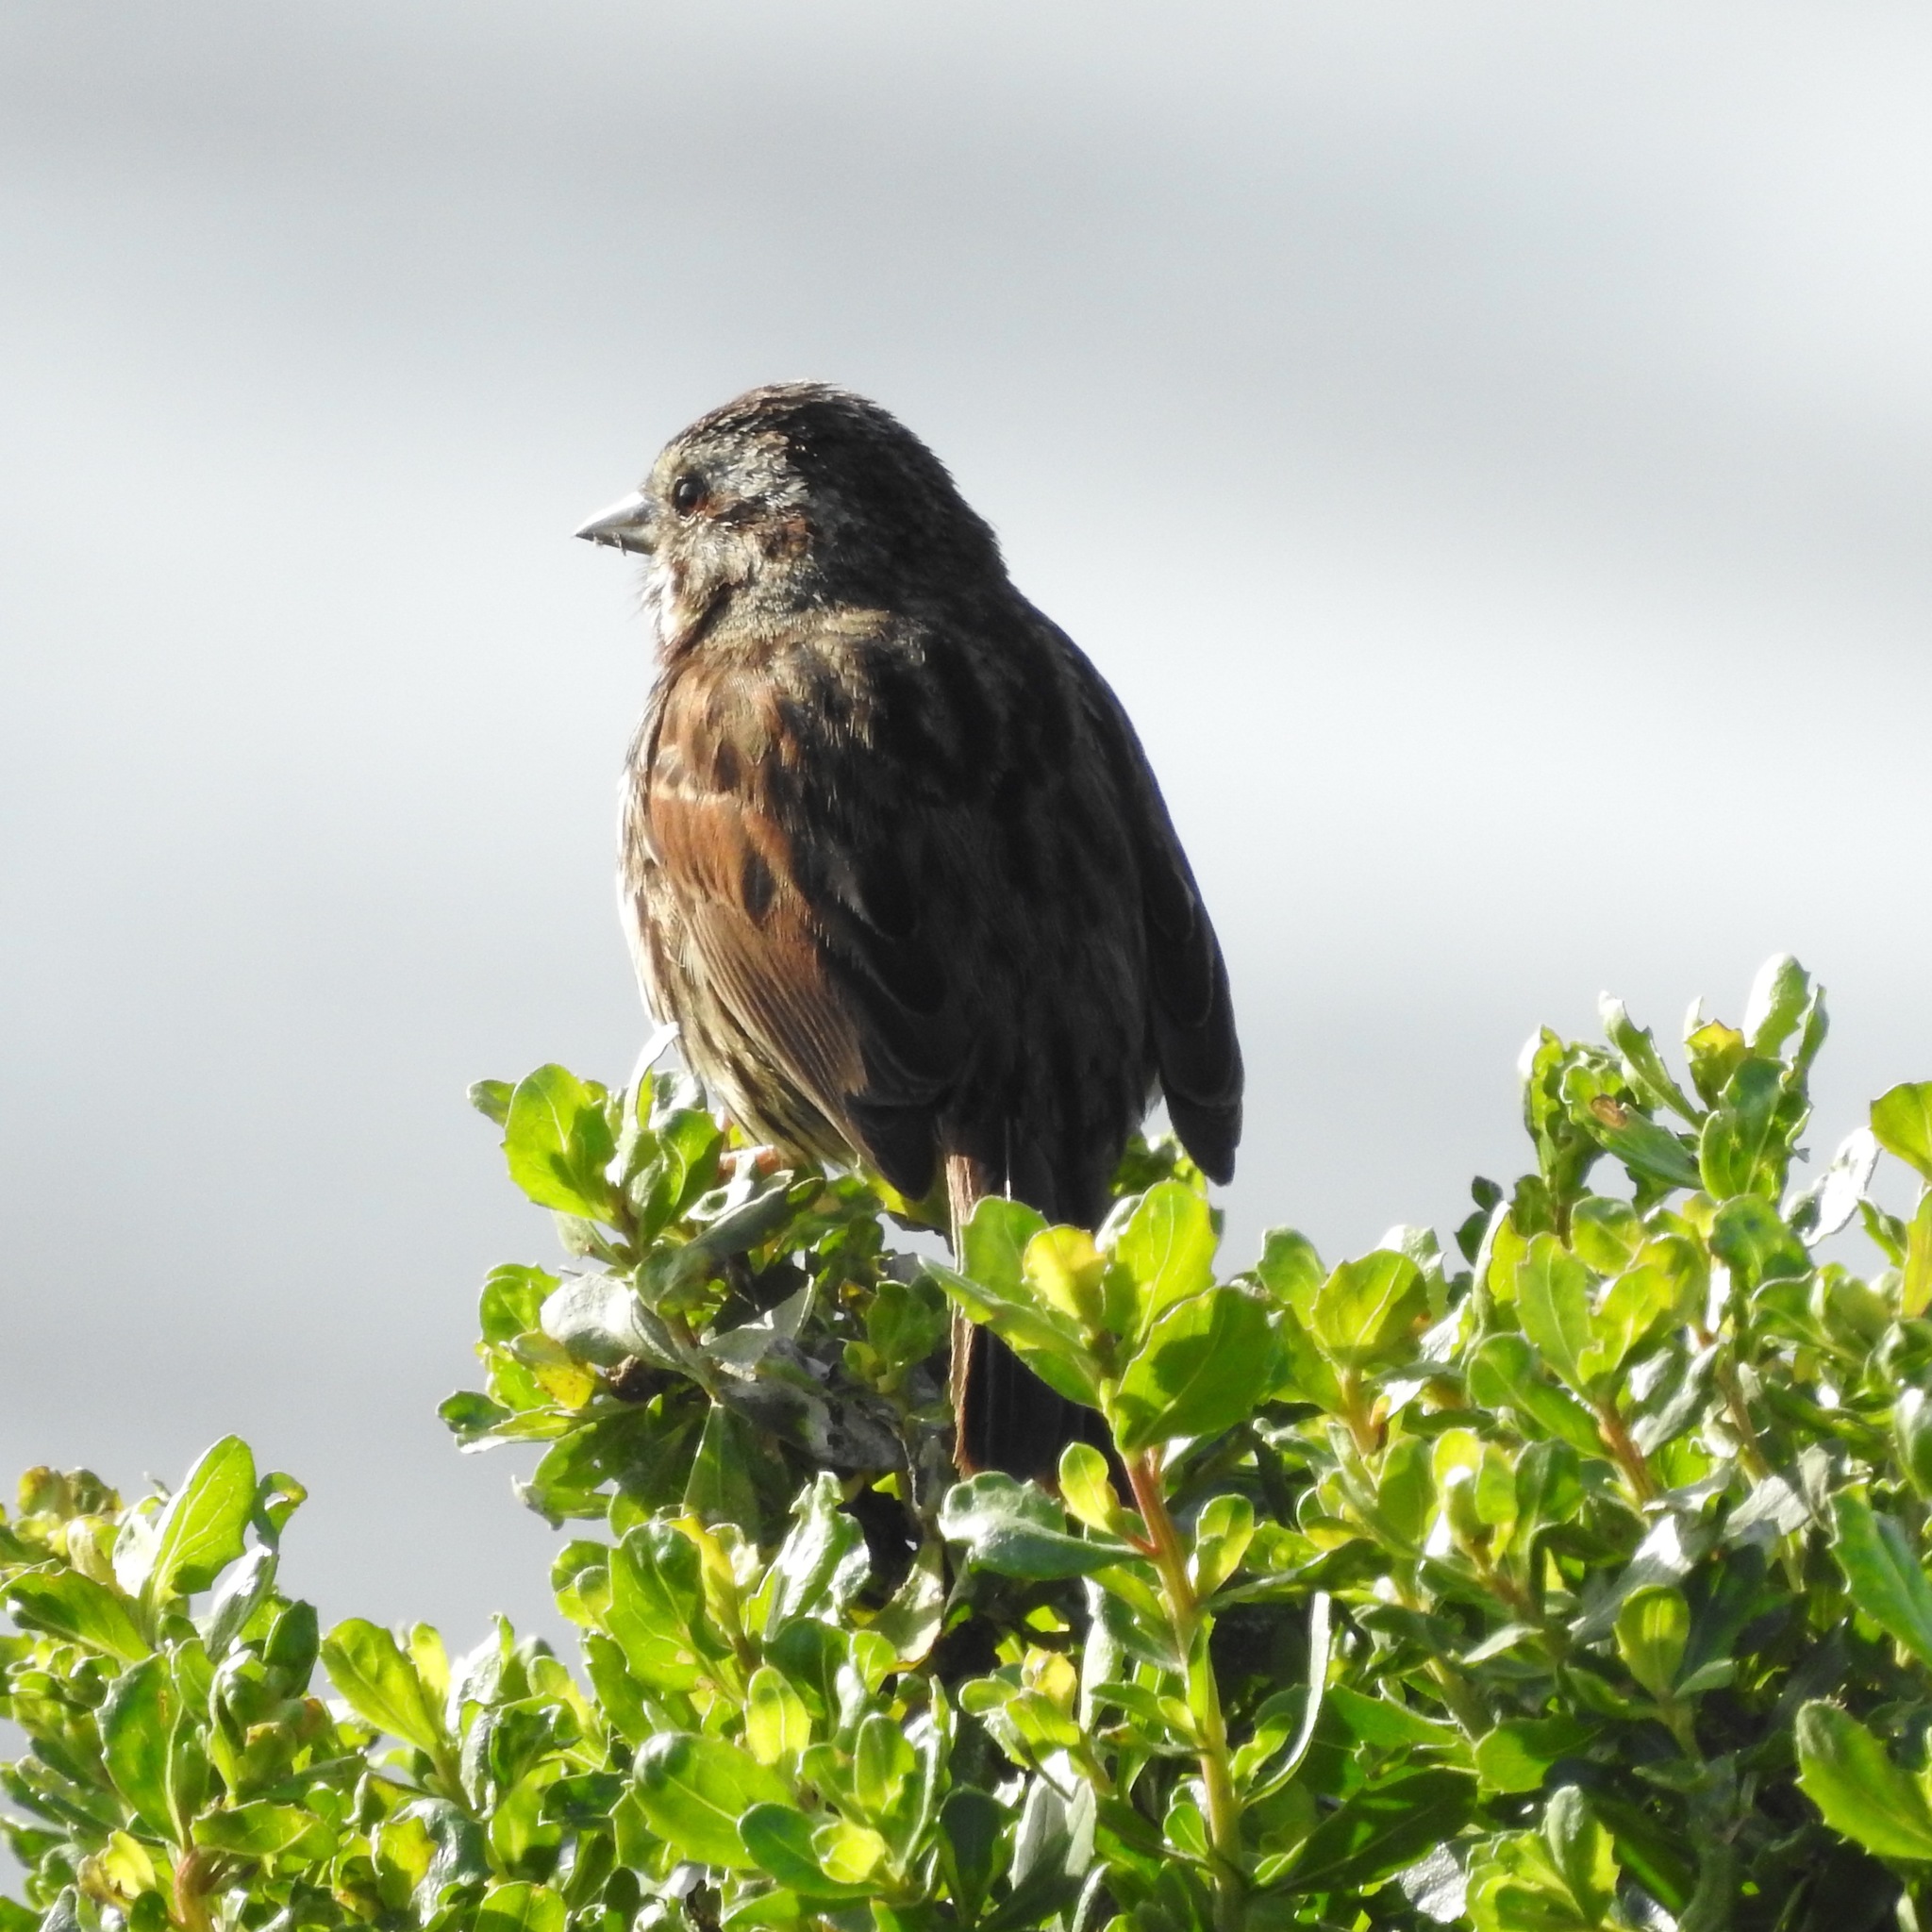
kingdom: Animalia
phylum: Chordata
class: Aves
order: Passeriformes
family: Passerellidae
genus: Melospiza
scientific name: Melospiza melodia
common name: Song sparrow
